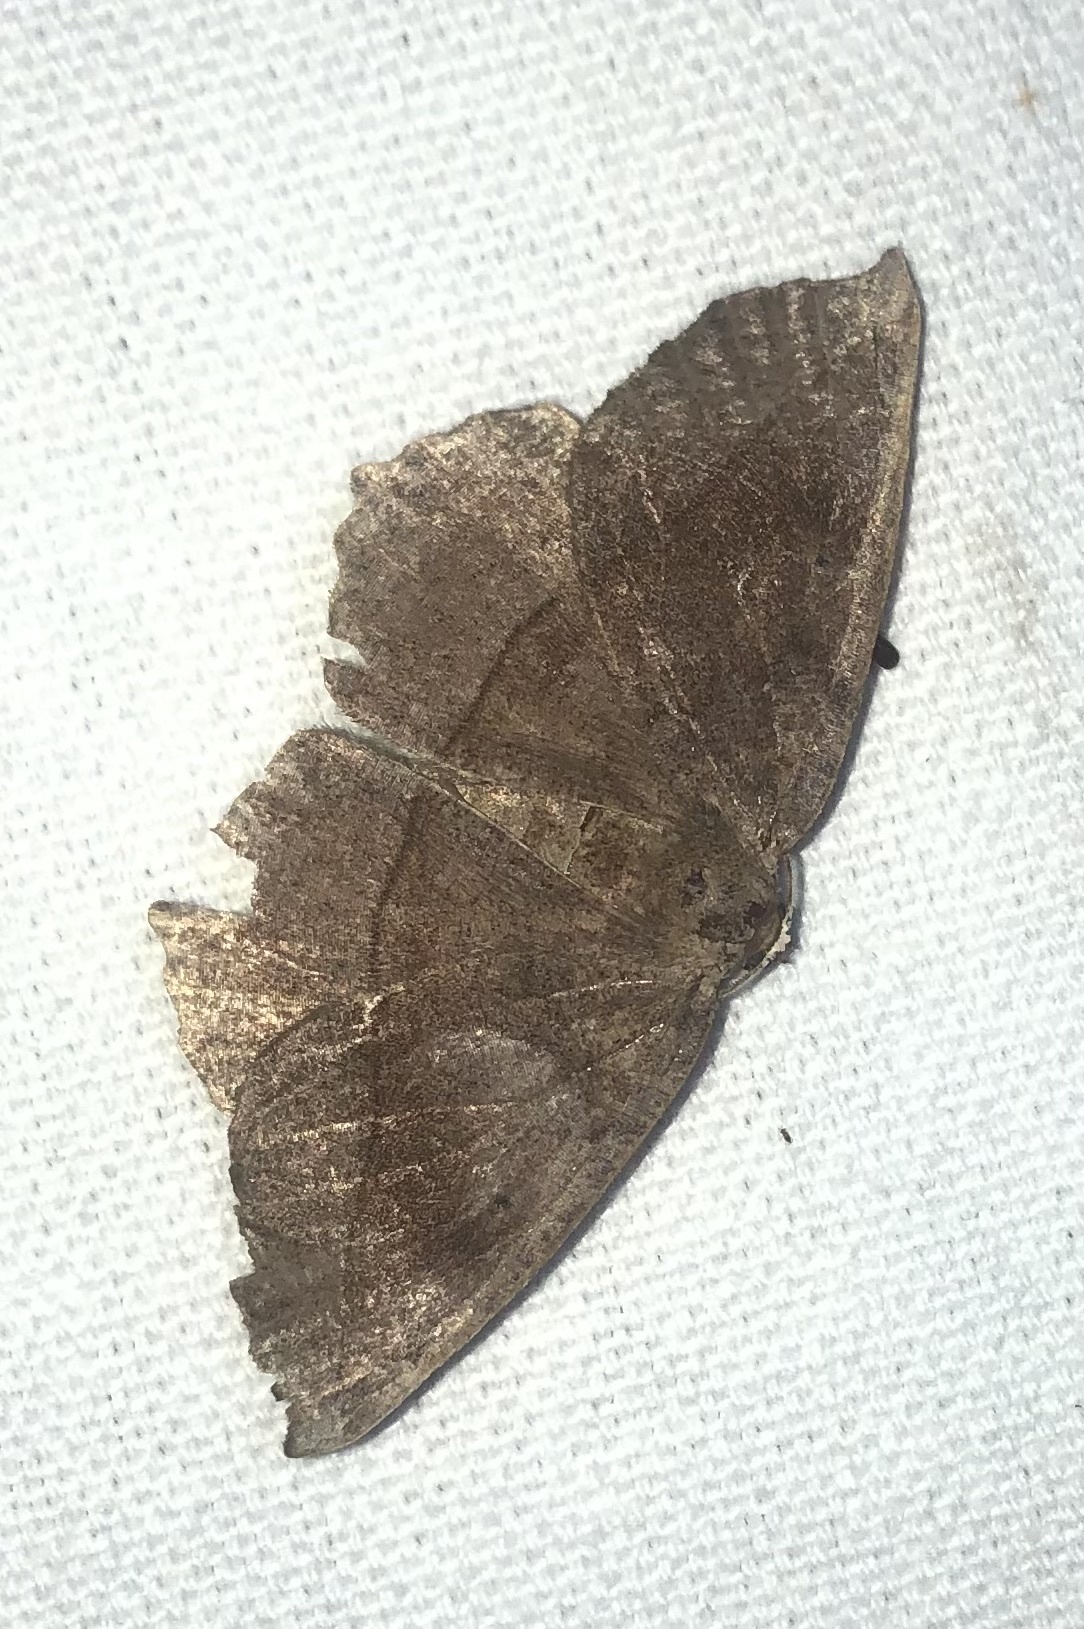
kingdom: Animalia
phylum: Arthropoda
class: Insecta
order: Lepidoptera
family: Geometridae
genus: Eutrapela
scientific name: Eutrapela clemataria
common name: Curved-toothed geometer
